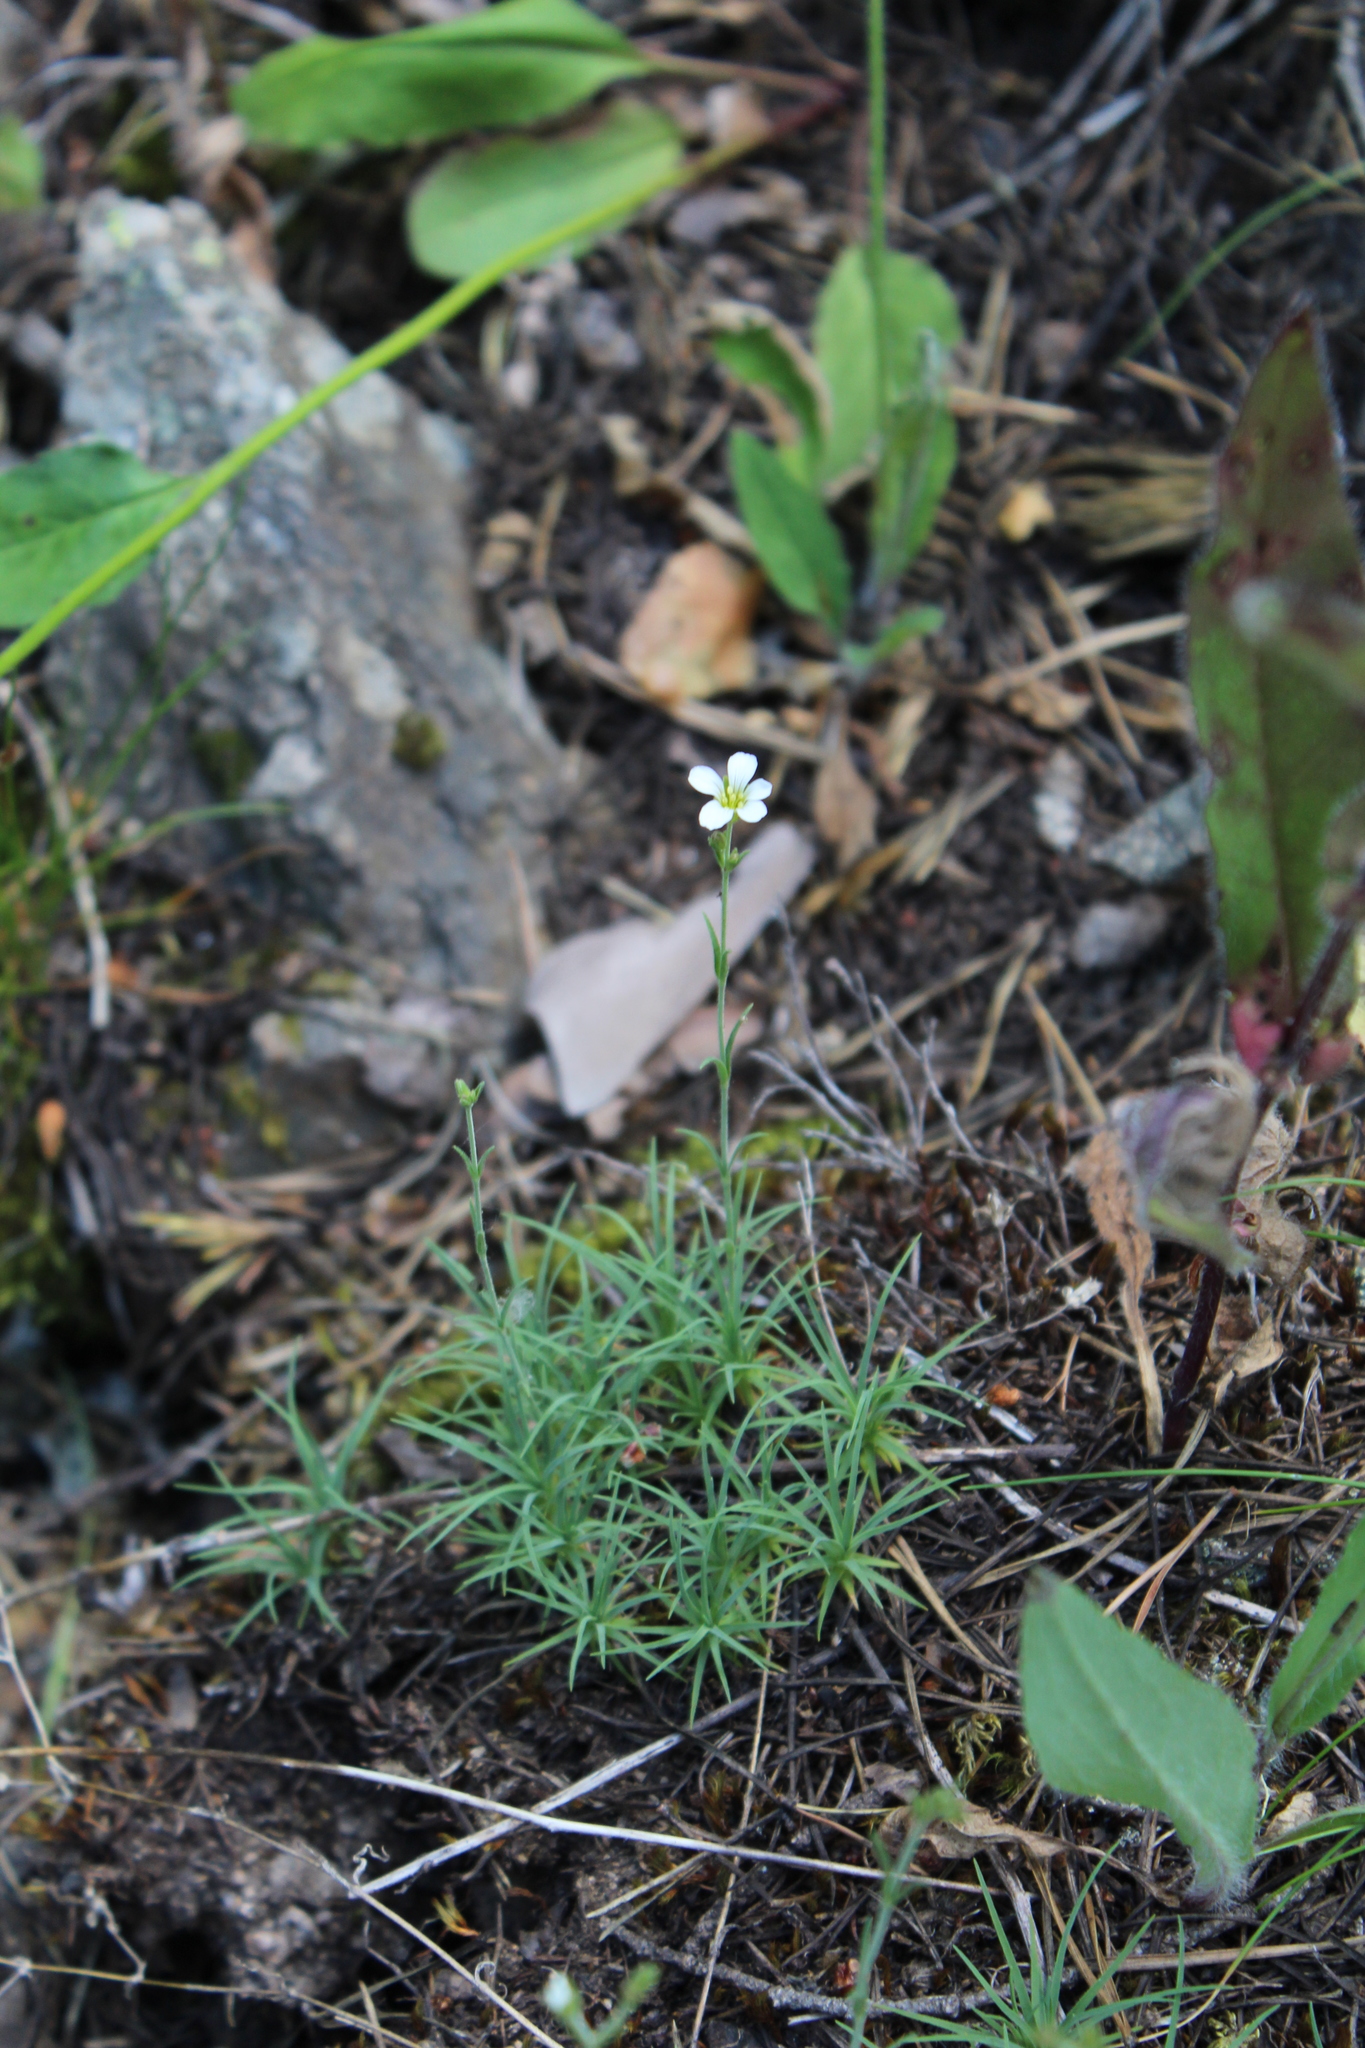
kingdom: Plantae
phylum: Tracheophyta
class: Magnoliopsida
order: Caryophyllales
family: Caryophyllaceae
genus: Cherleria
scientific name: Cherleria circassica
